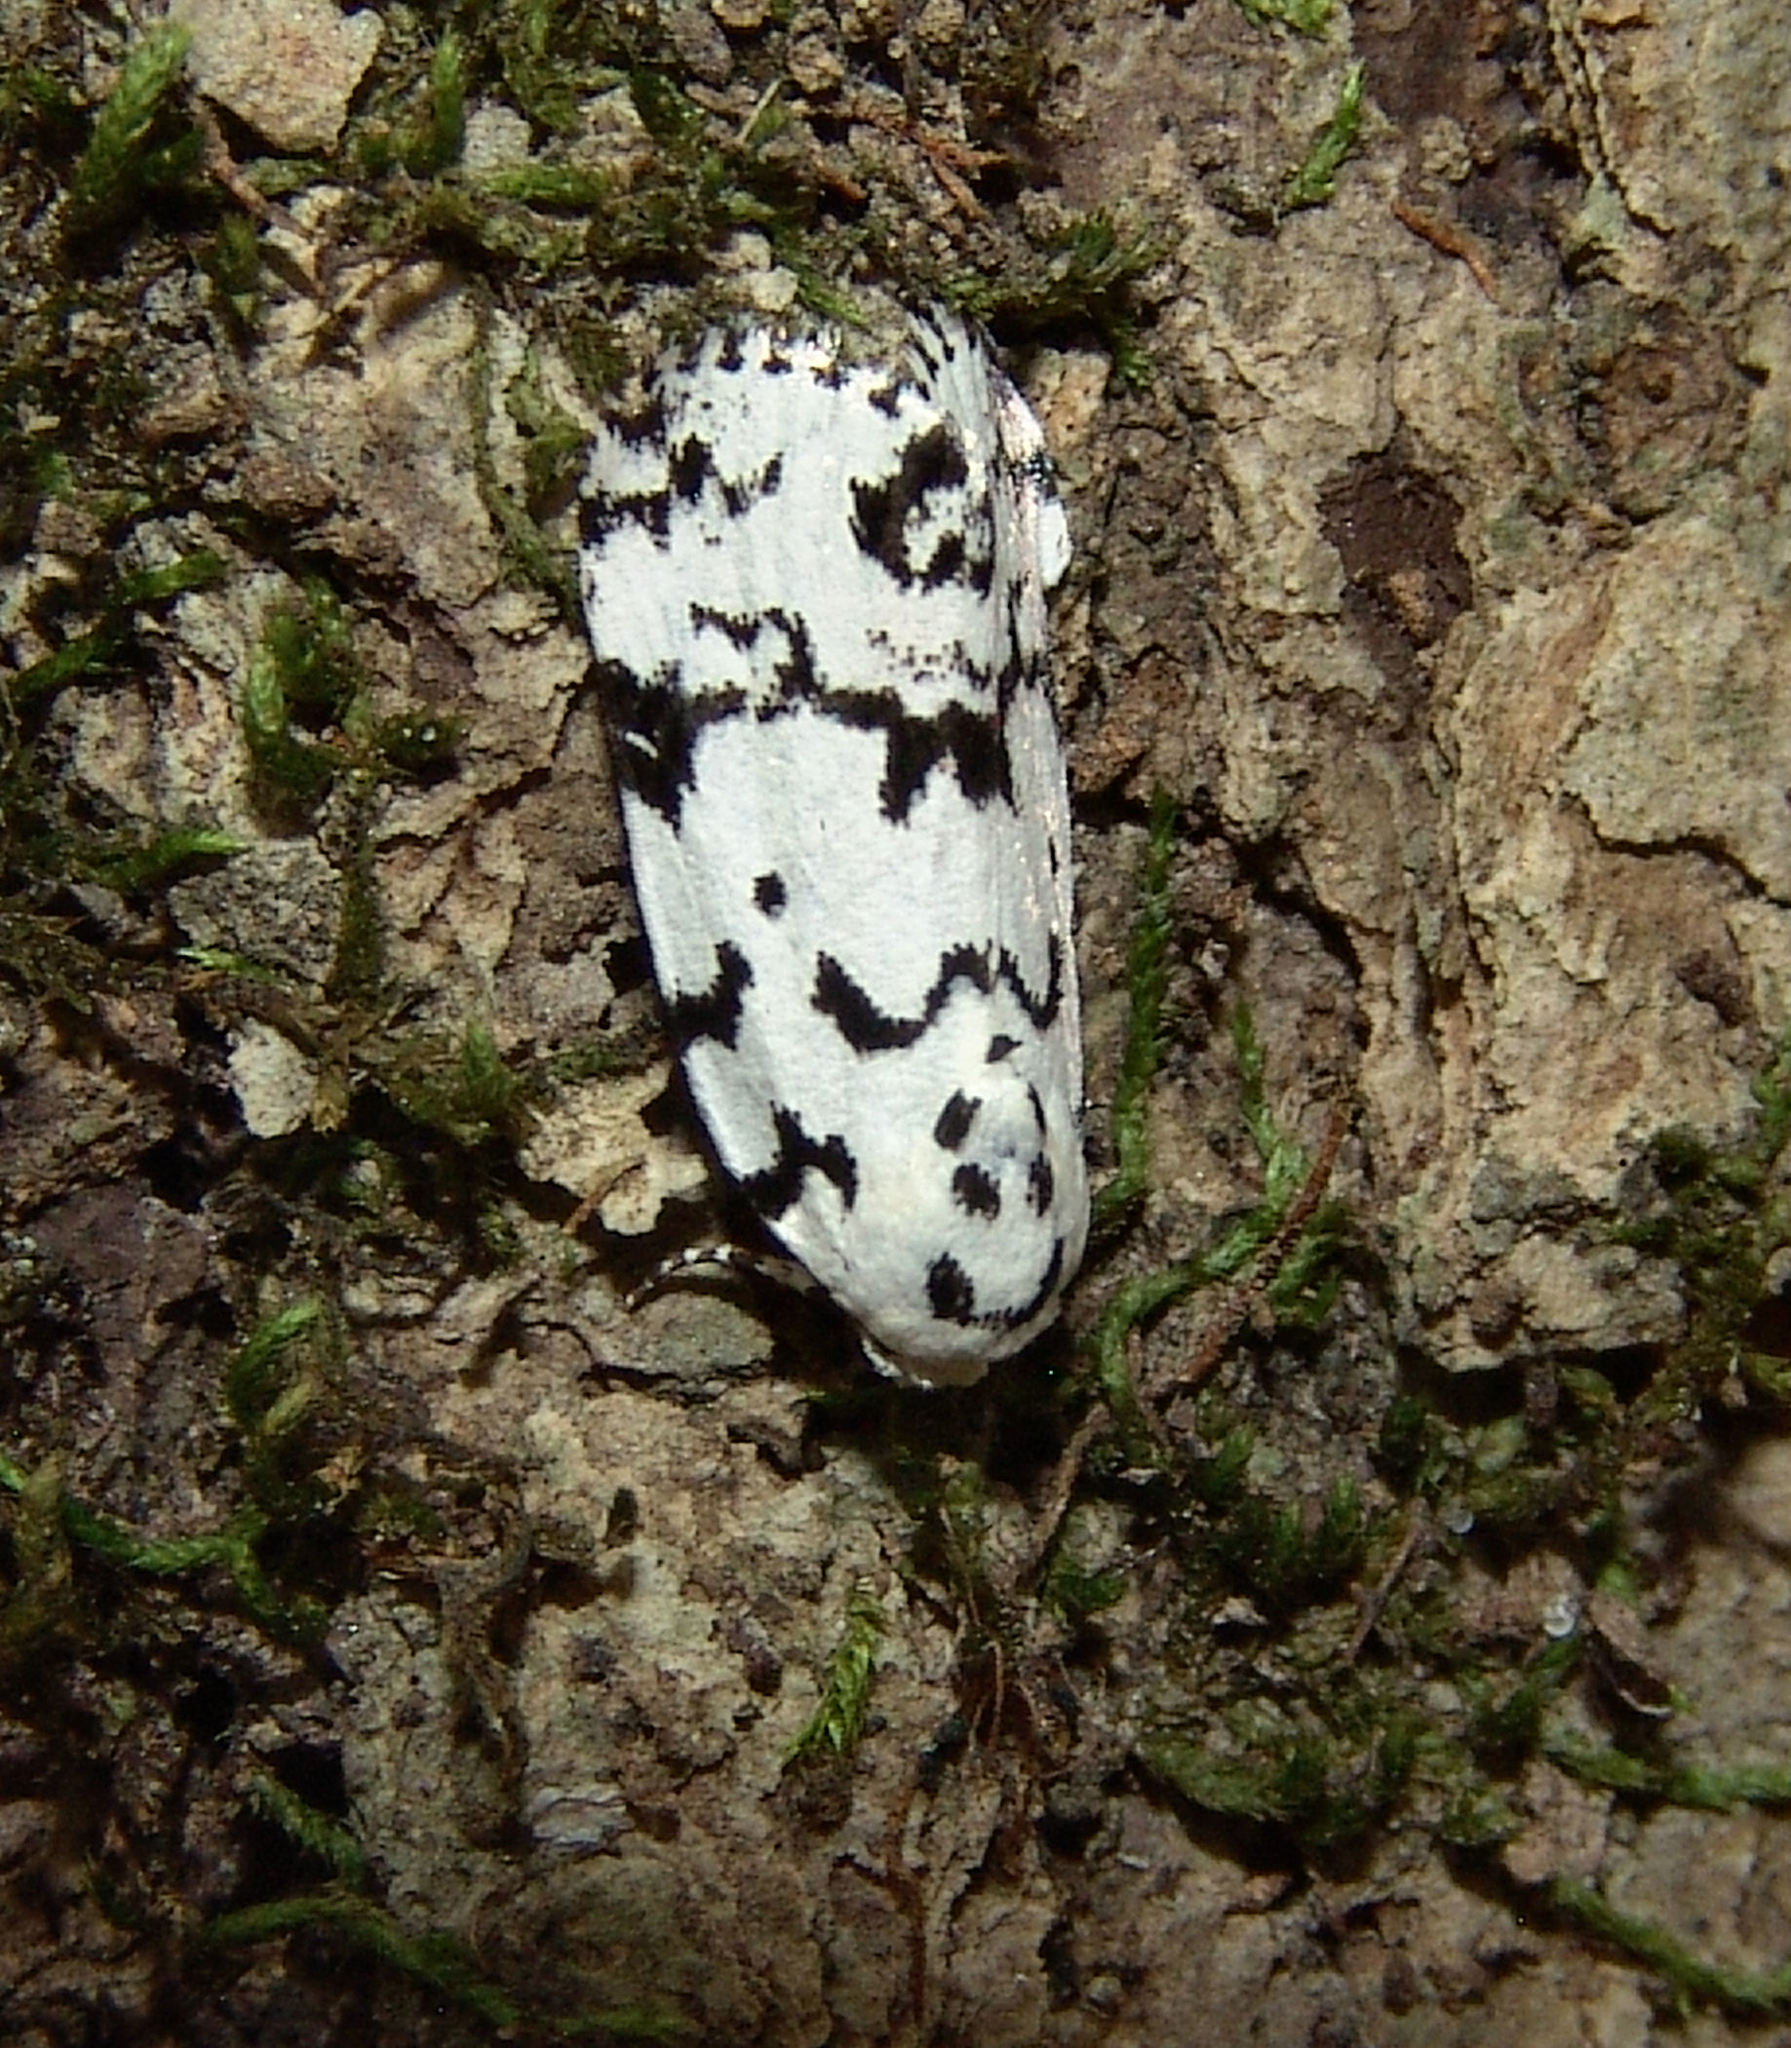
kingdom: Animalia
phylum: Arthropoda
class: Insecta
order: Lepidoptera
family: Noctuidae
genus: Polygrammate
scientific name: Polygrammate hebraeicum
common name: Hebrew moth
